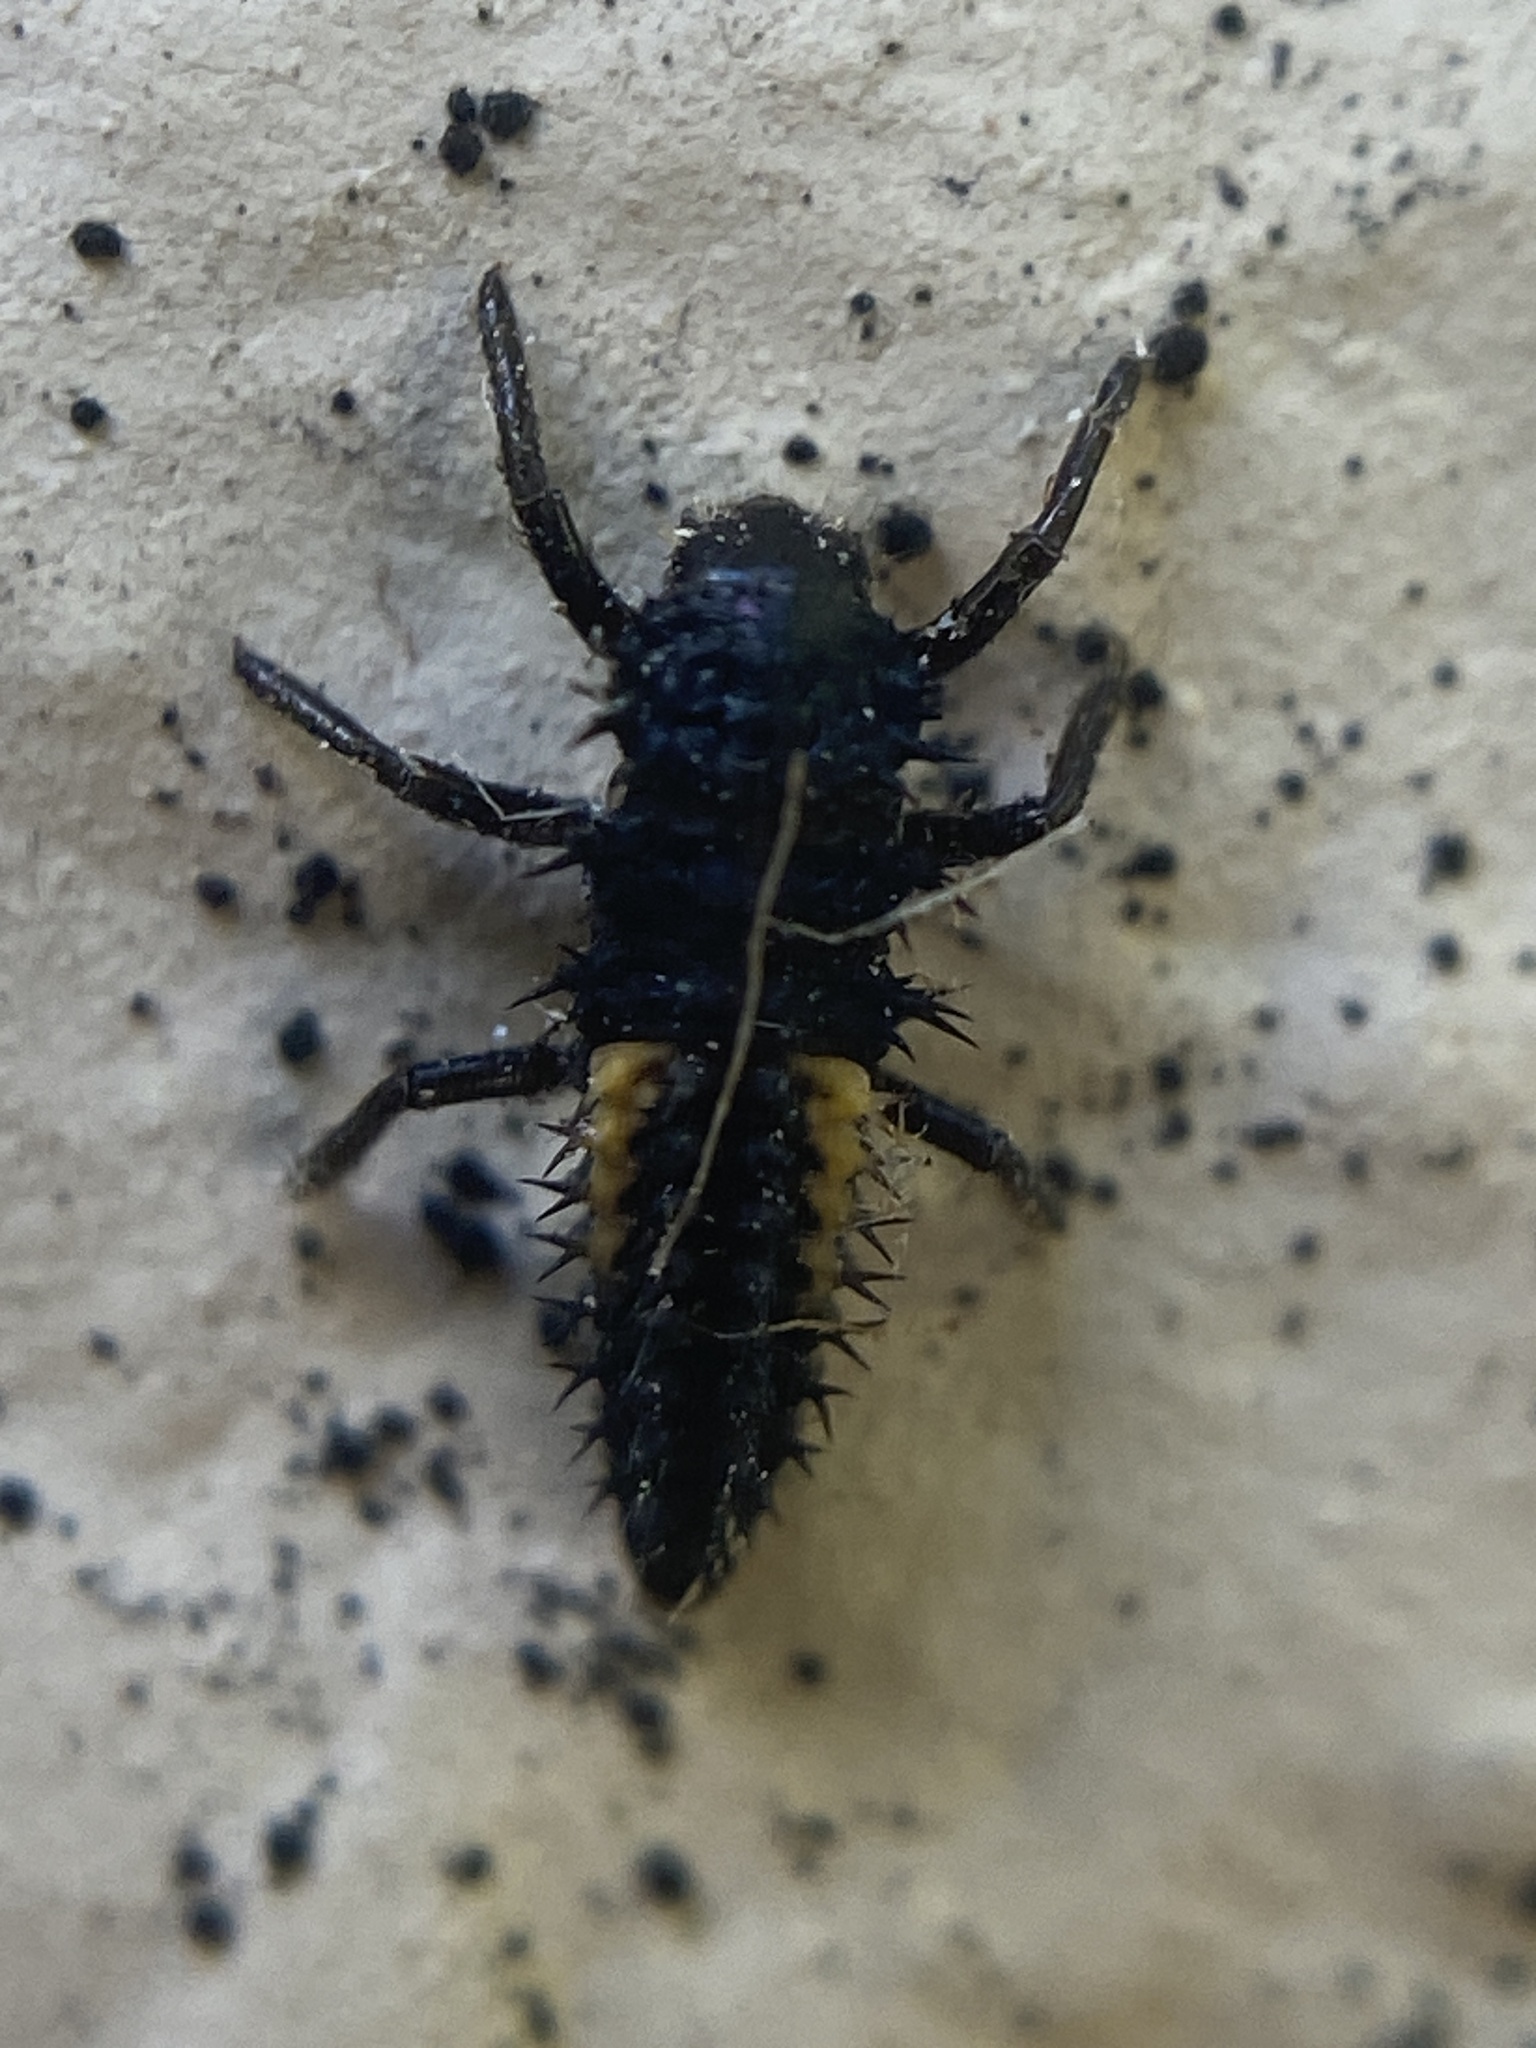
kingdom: Animalia
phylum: Arthropoda
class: Insecta
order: Coleoptera
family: Coccinellidae
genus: Harmonia
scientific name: Harmonia axyridis
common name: Harlequin ladybird
